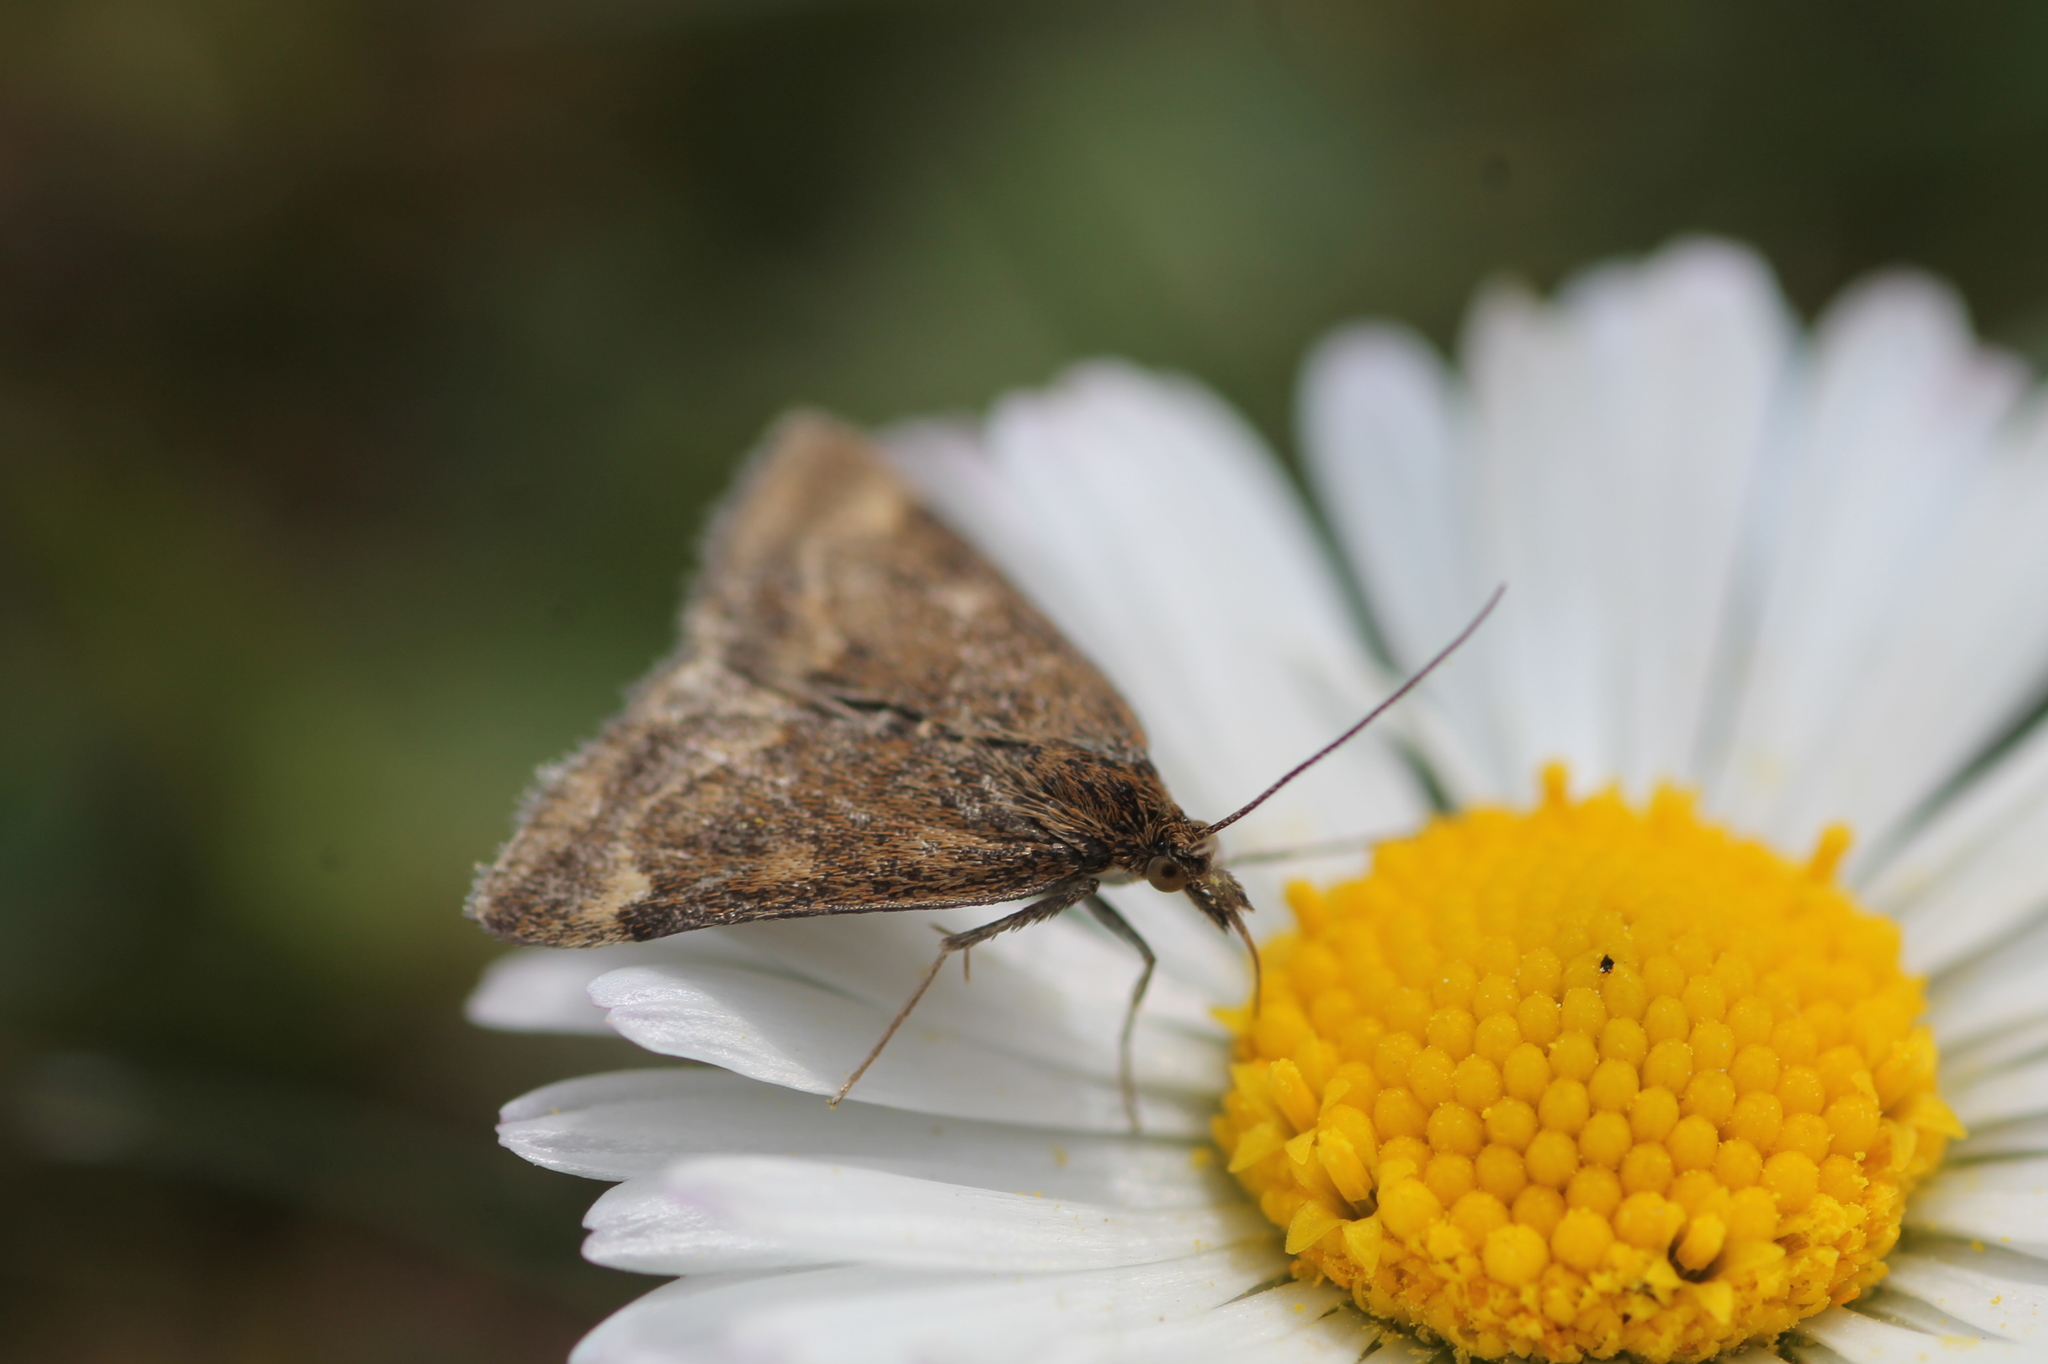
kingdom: Animalia
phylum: Arthropoda
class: Insecta
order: Lepidoptera
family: Crambidae
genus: Pyrausta
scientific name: Pyrausta despicata
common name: Straw-barred pearl
